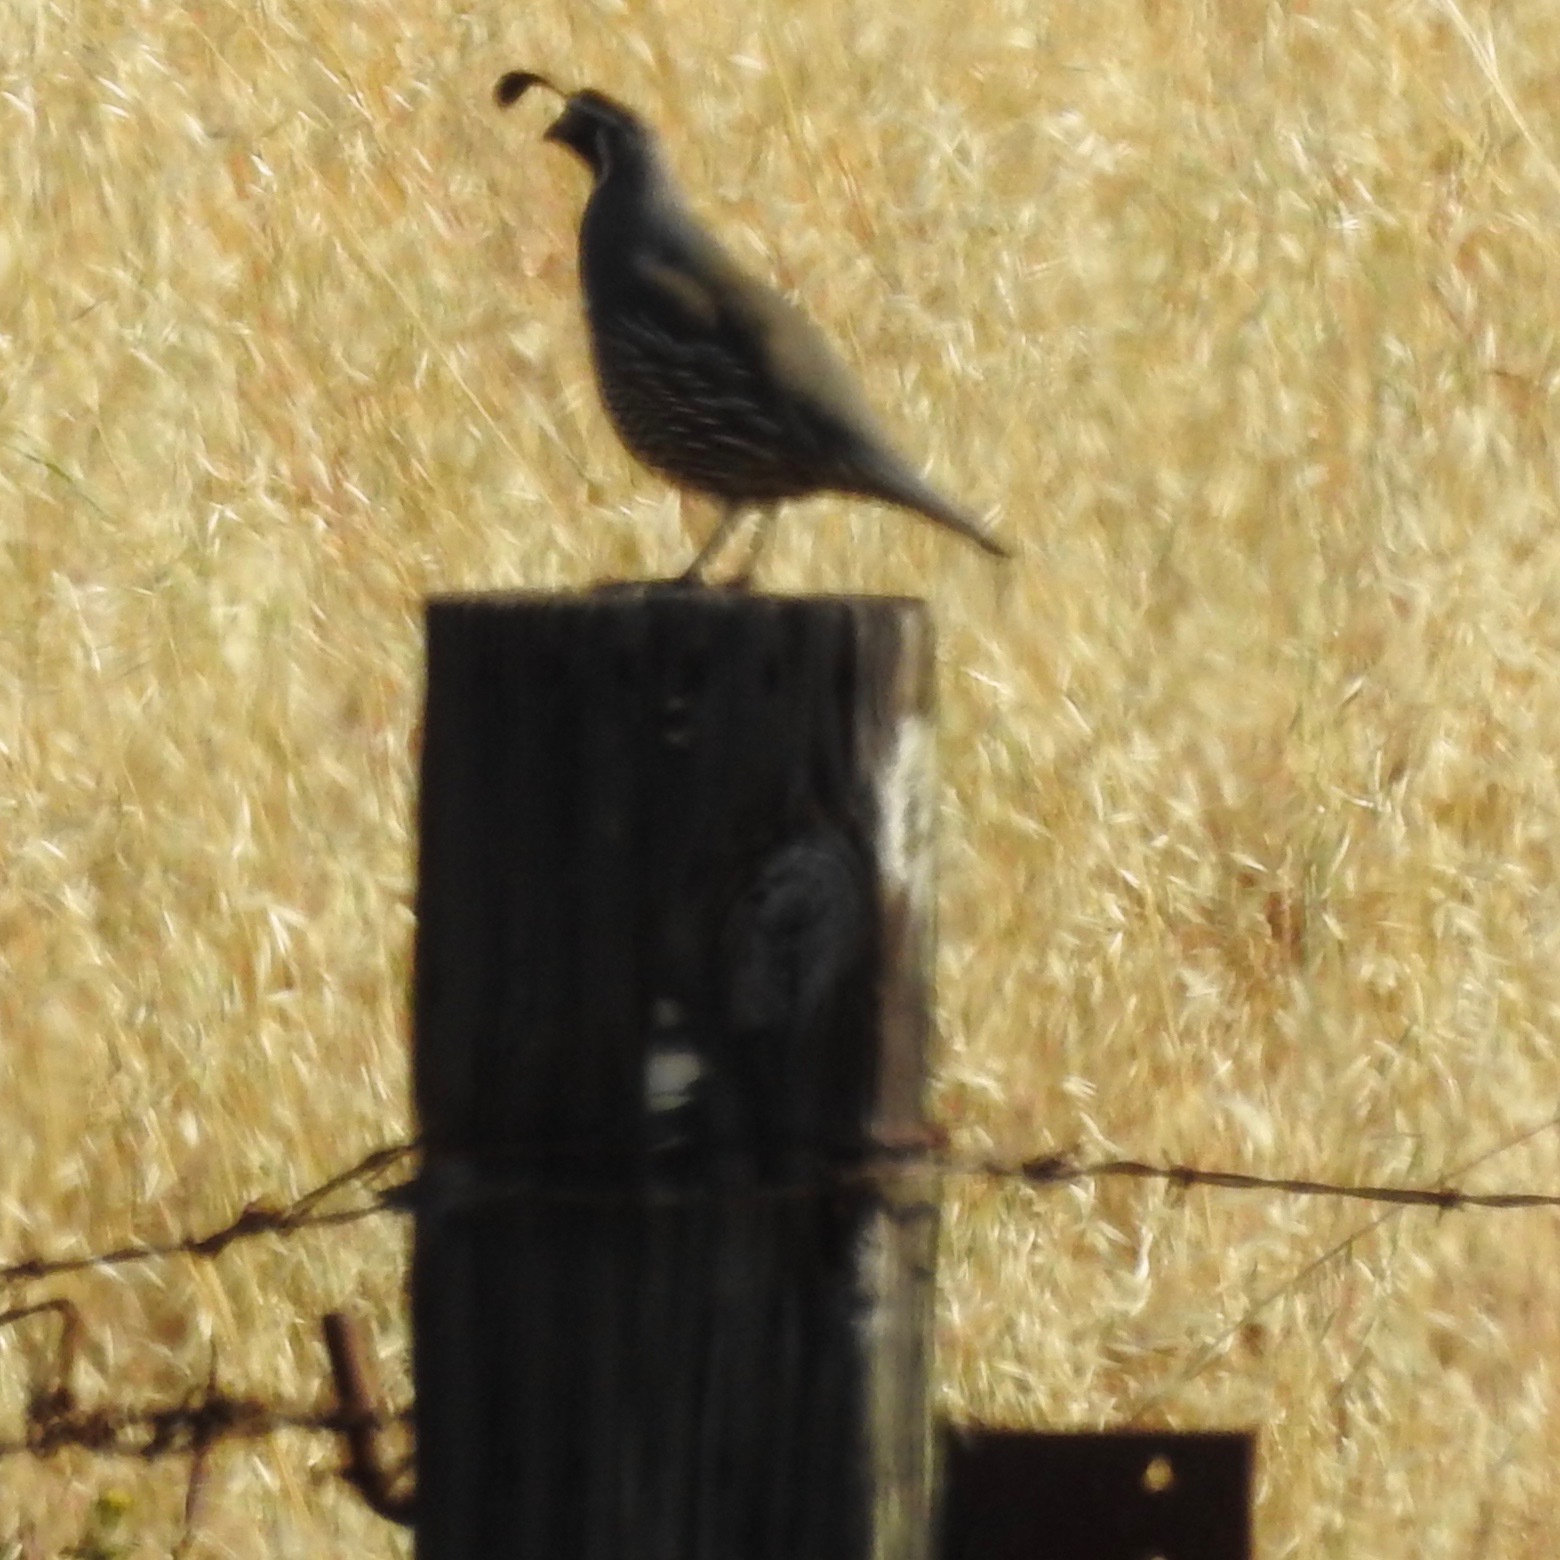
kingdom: Animalia
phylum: Chordata
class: Aves
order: Galliformes
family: Odontophoridae
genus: Callipepla
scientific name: Callipepla californica
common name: California quail
